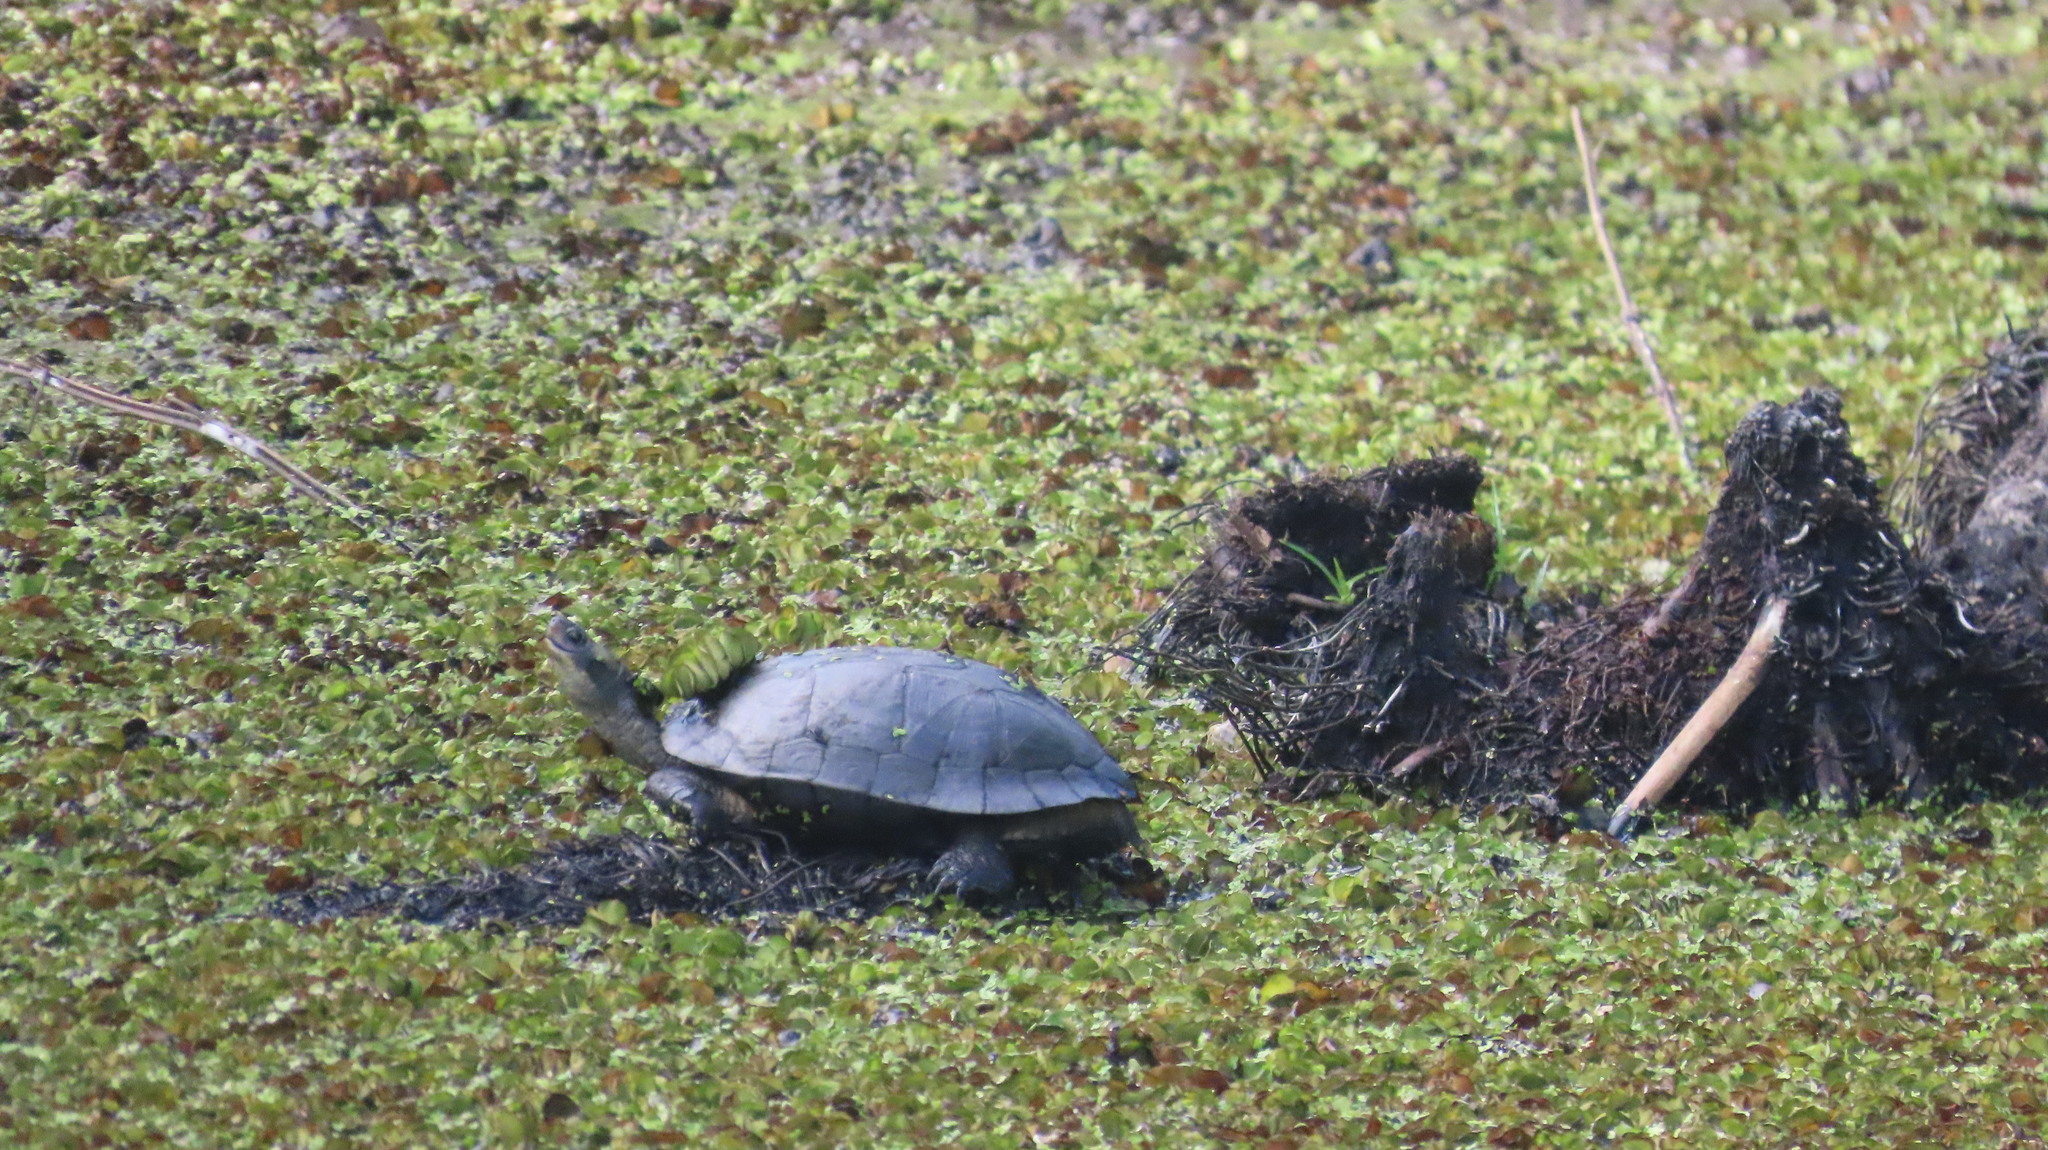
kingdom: Animalia
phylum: Chordata
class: Testudines
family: Geoemydidae
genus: Melanochelys
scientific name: Melanochelys trijuga
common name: Indian black turtle
